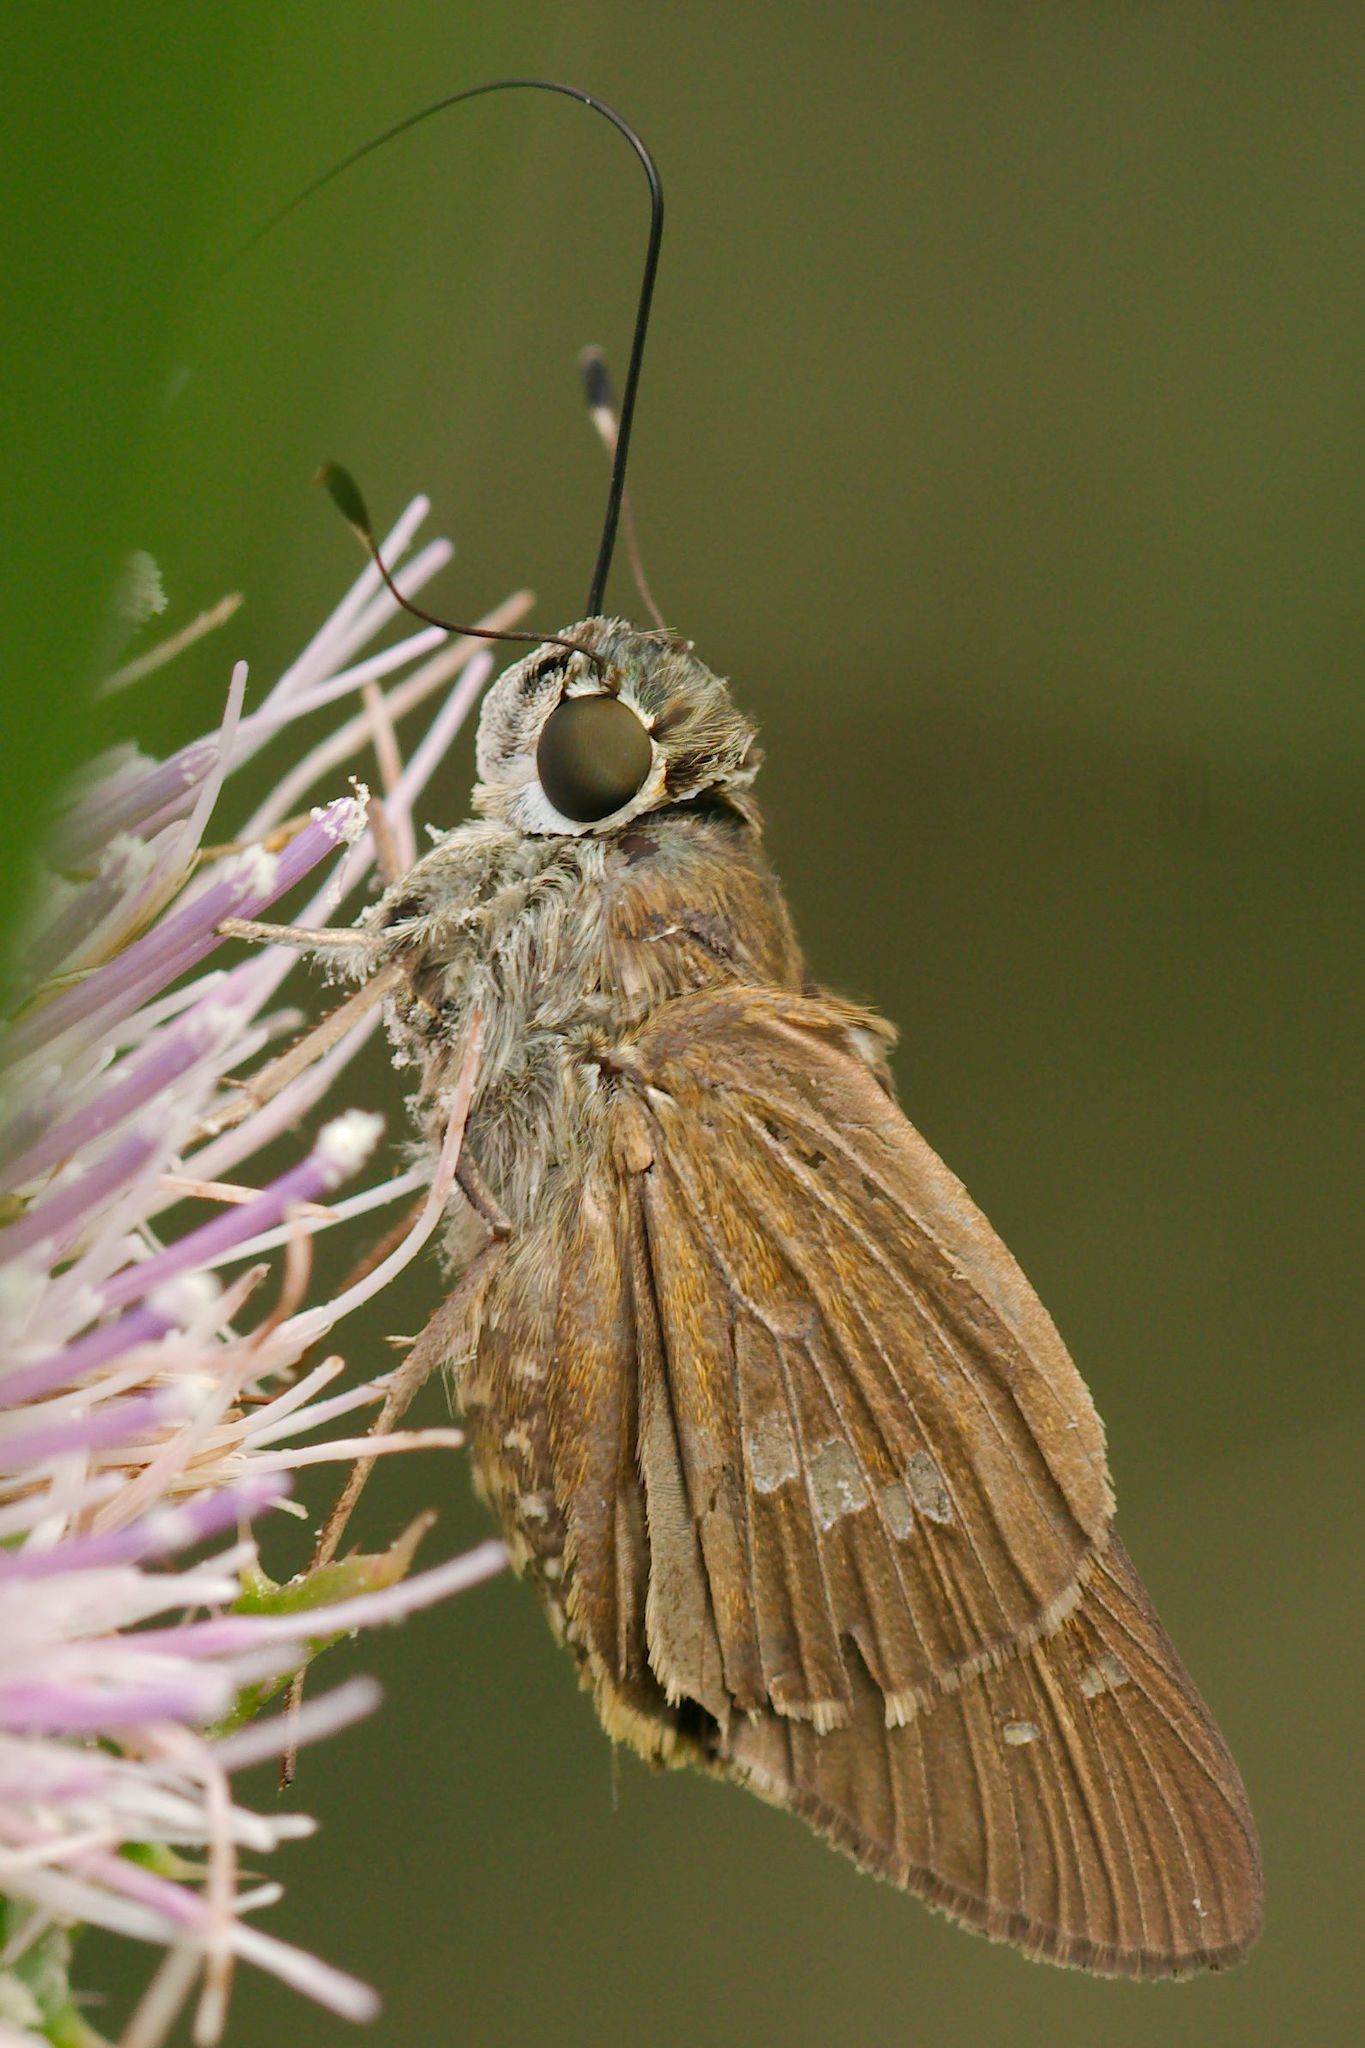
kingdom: Animalia
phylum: Arthropoda
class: Insecta
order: Lepidoptera
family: Hesperiidae
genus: Calpodes
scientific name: Calpodes ethlius
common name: Brazilian skipper
